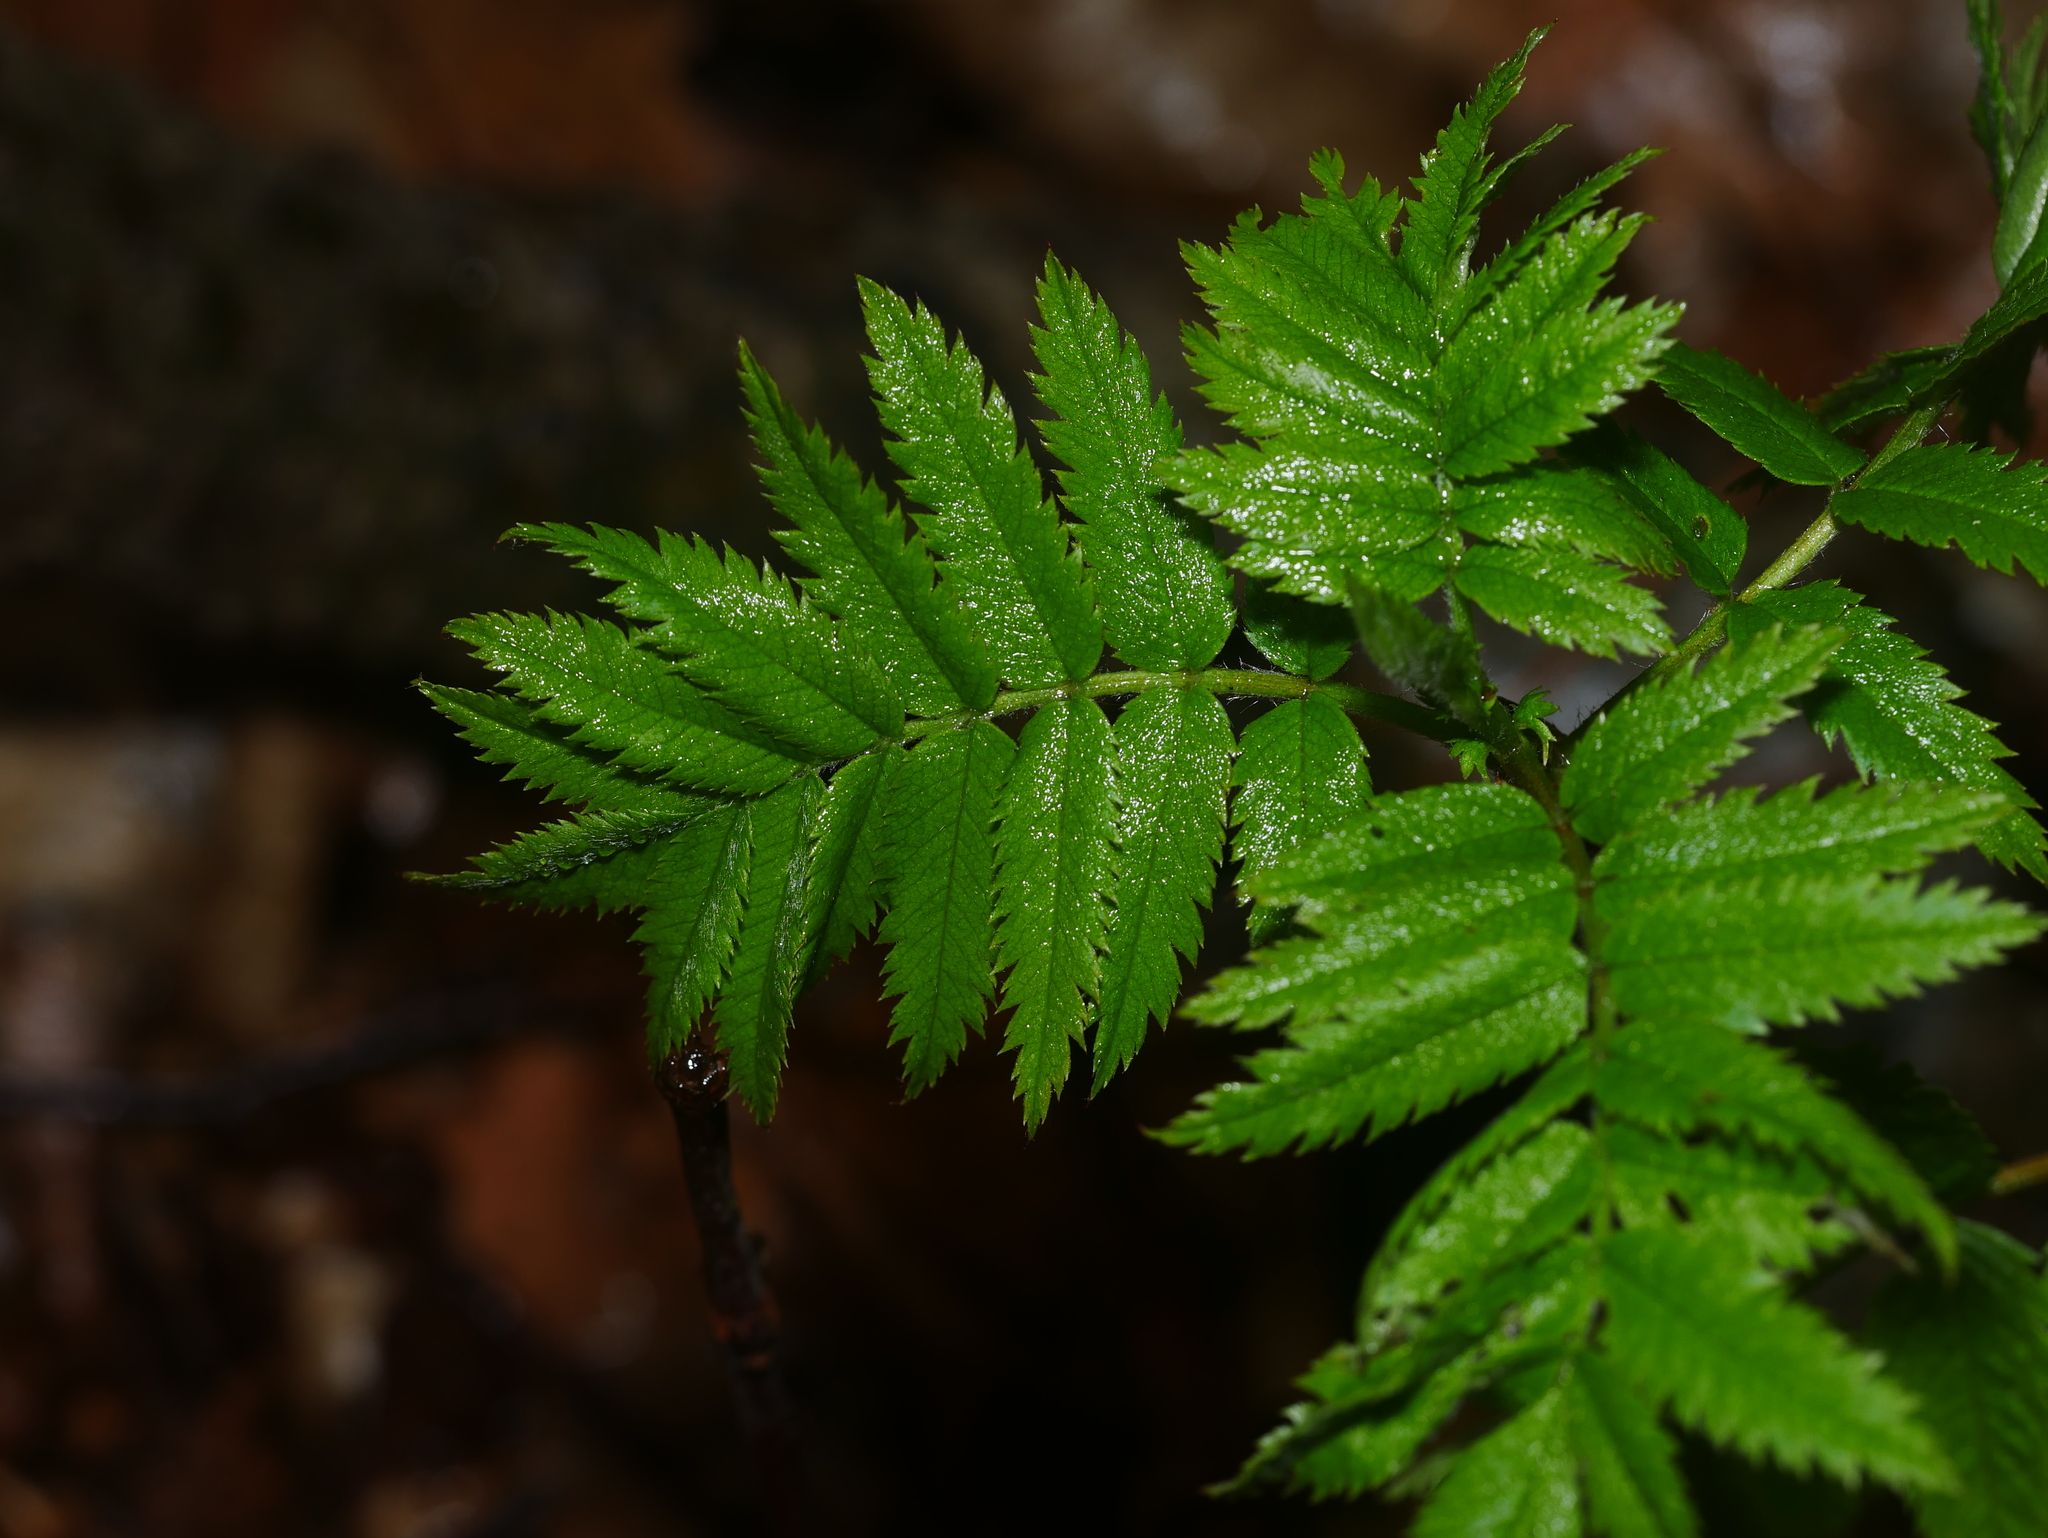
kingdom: Plantae
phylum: Tracheophyta
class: Magnoliopsida
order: Rosales
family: Rosaceae
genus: Sorbus
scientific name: Sorbus aucuparia
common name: Rowan
